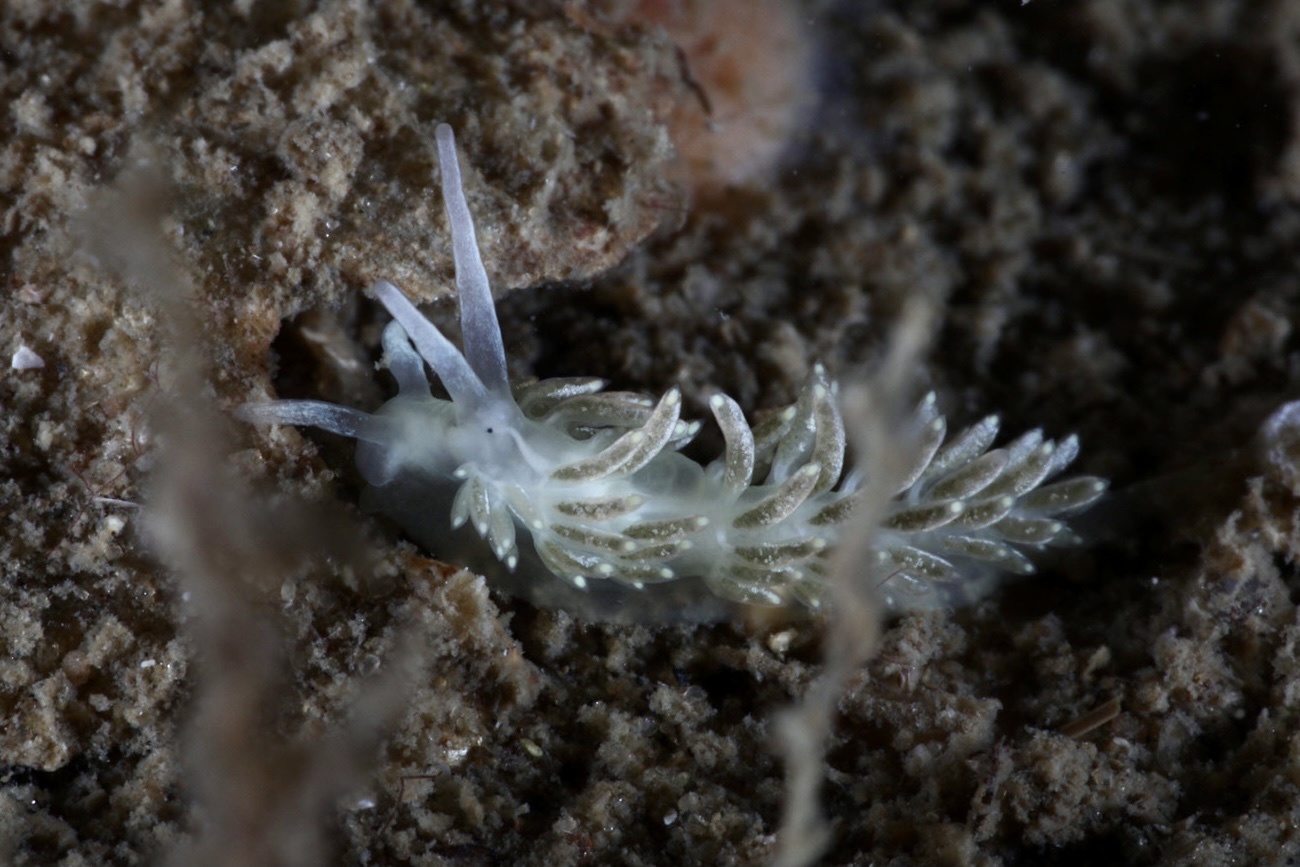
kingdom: Animalia
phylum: Mollusca
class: Gastropoda
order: Nudibranchia
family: Trinchesiidae
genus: Diaphoreolis
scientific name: Diaphoreolis viridis
